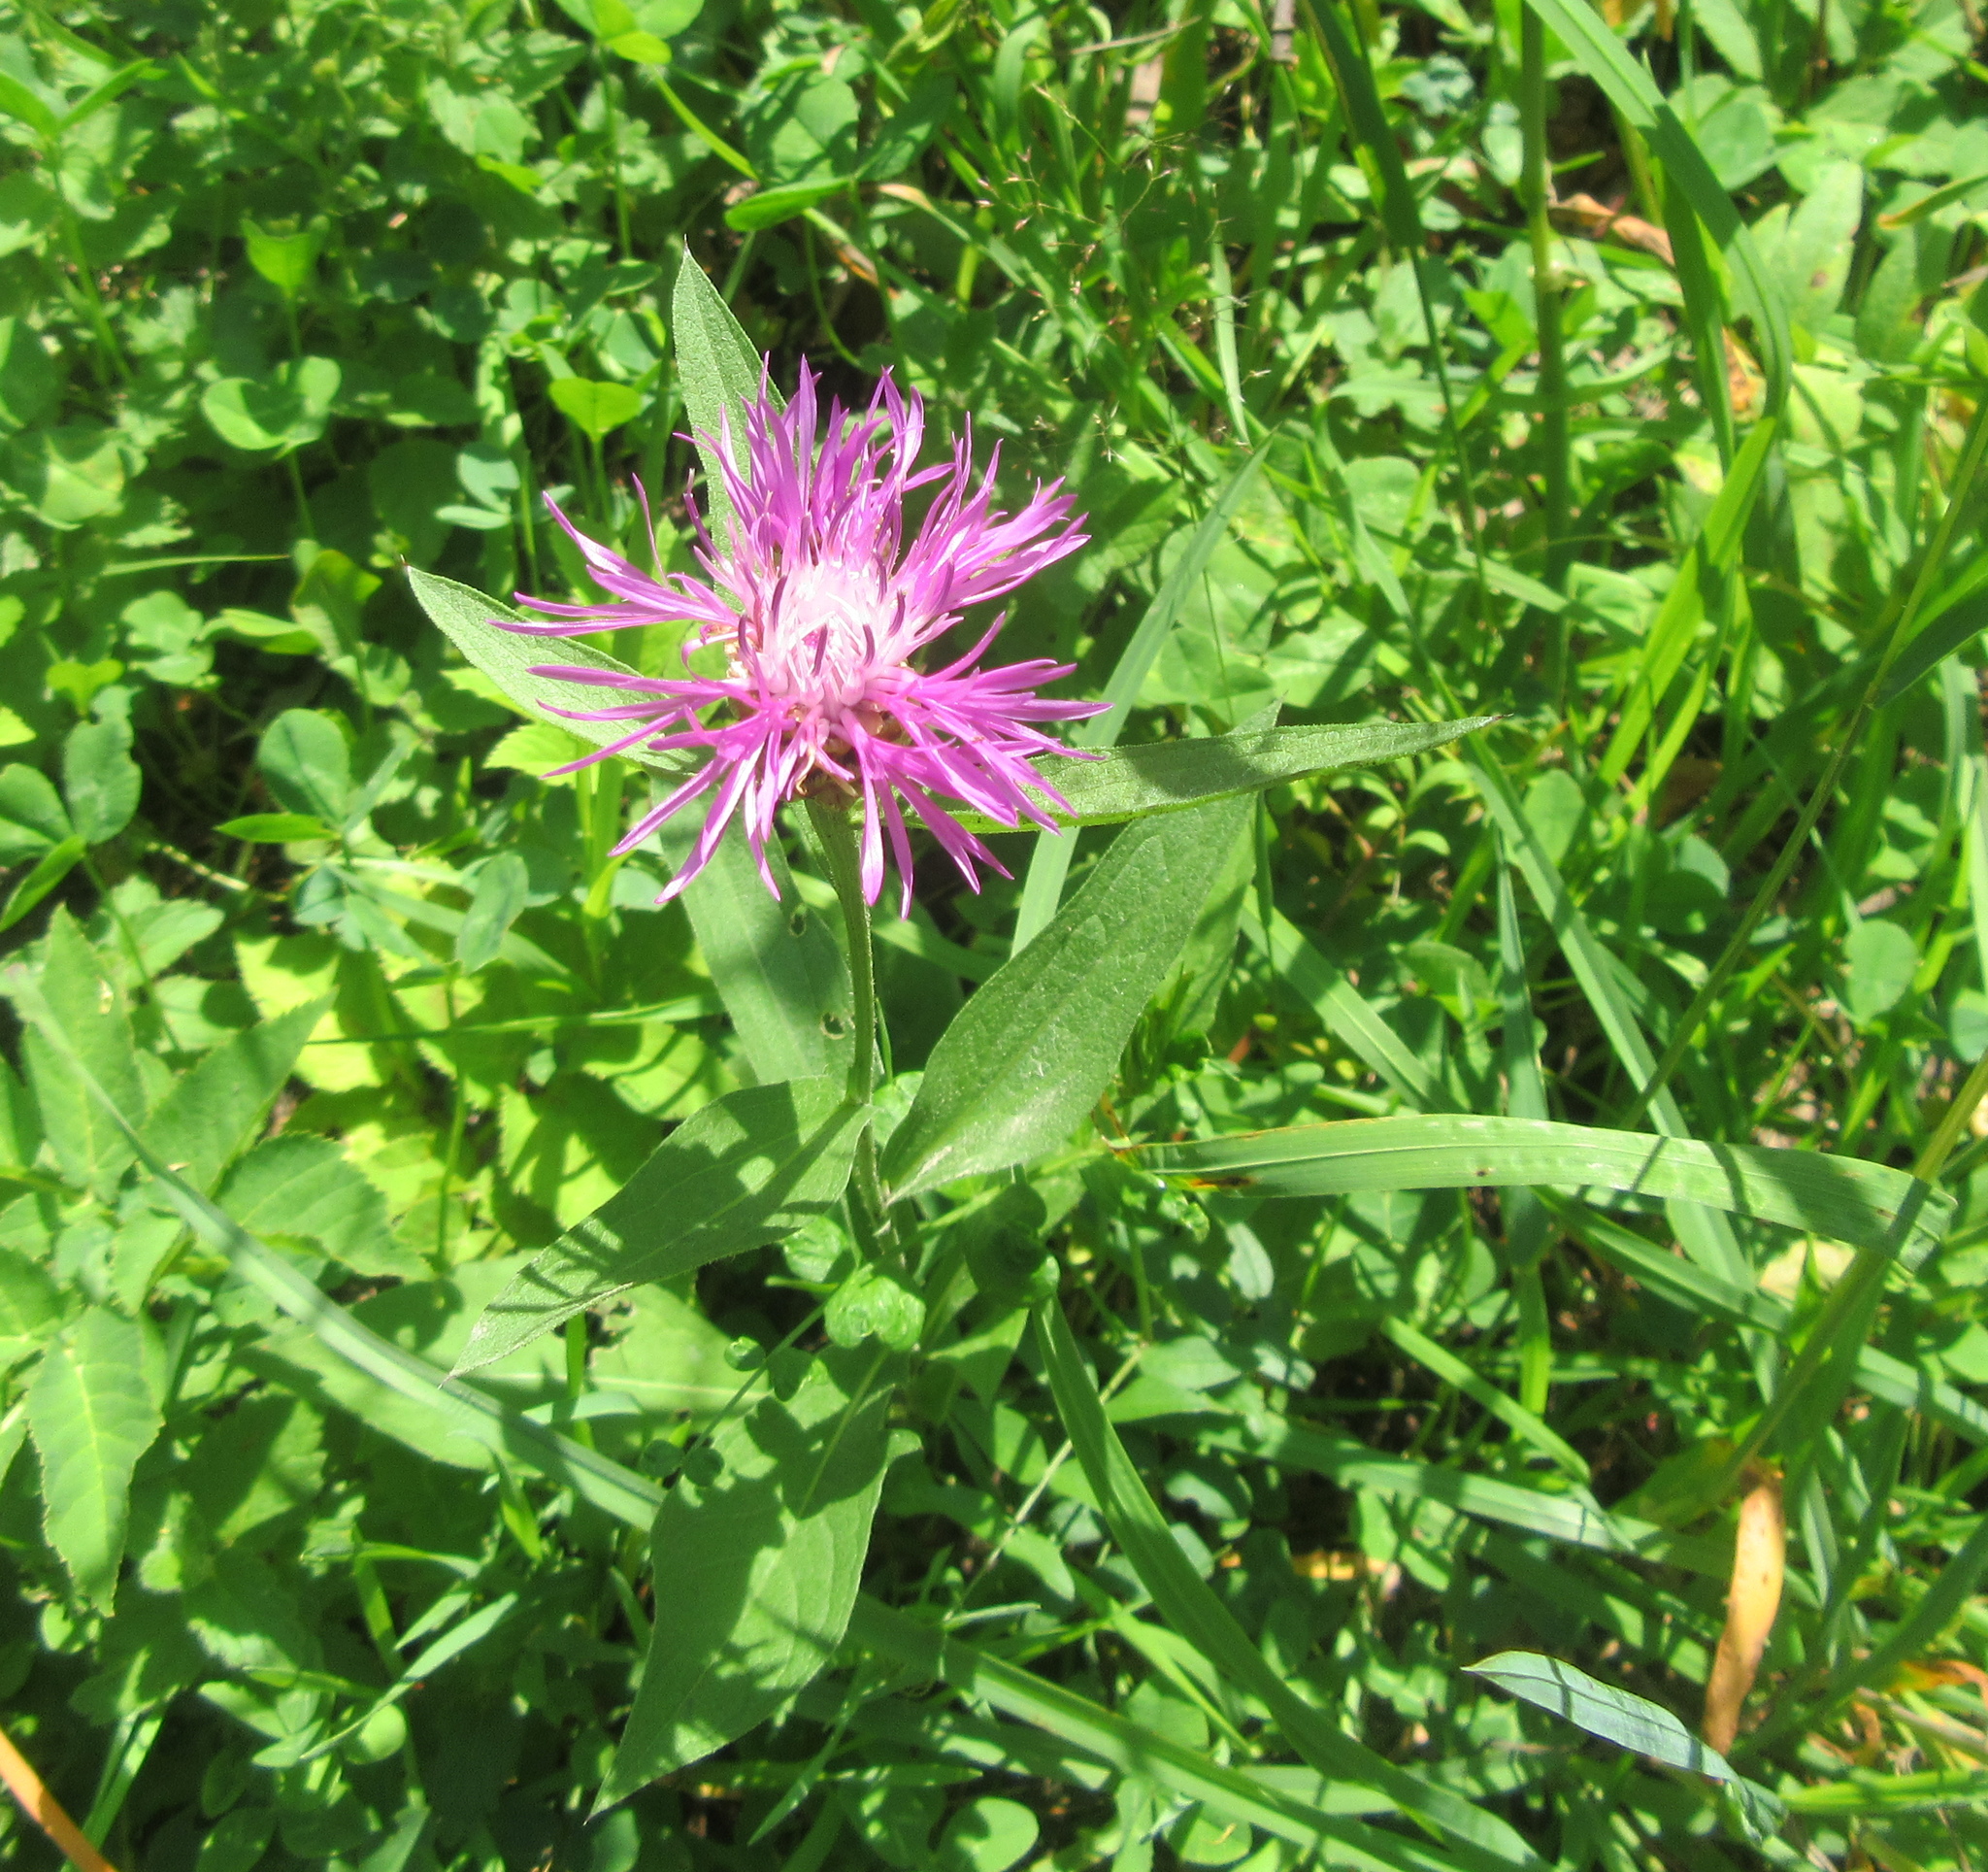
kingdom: Plantae
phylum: Tracheophyta
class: Magnoliopsida
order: Asterales
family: Asteraceae
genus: Centaurea
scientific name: Centaurea jacea
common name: Brown knapweed
